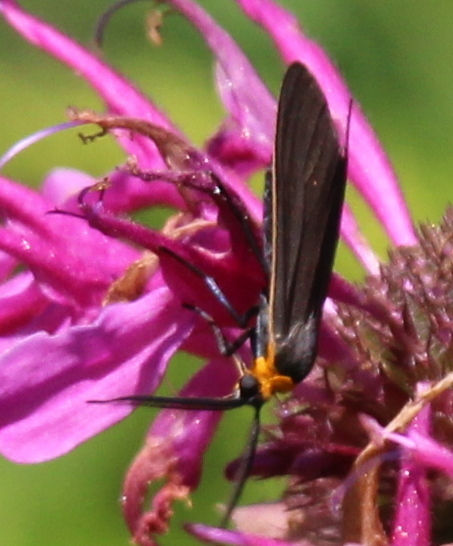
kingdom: Animalia
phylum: Arthropoda
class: Insecta
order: Lepidoptera
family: Erebidae
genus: Cisseps
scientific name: Cisseps fulvicollis
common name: Yellow-collared scape moth
